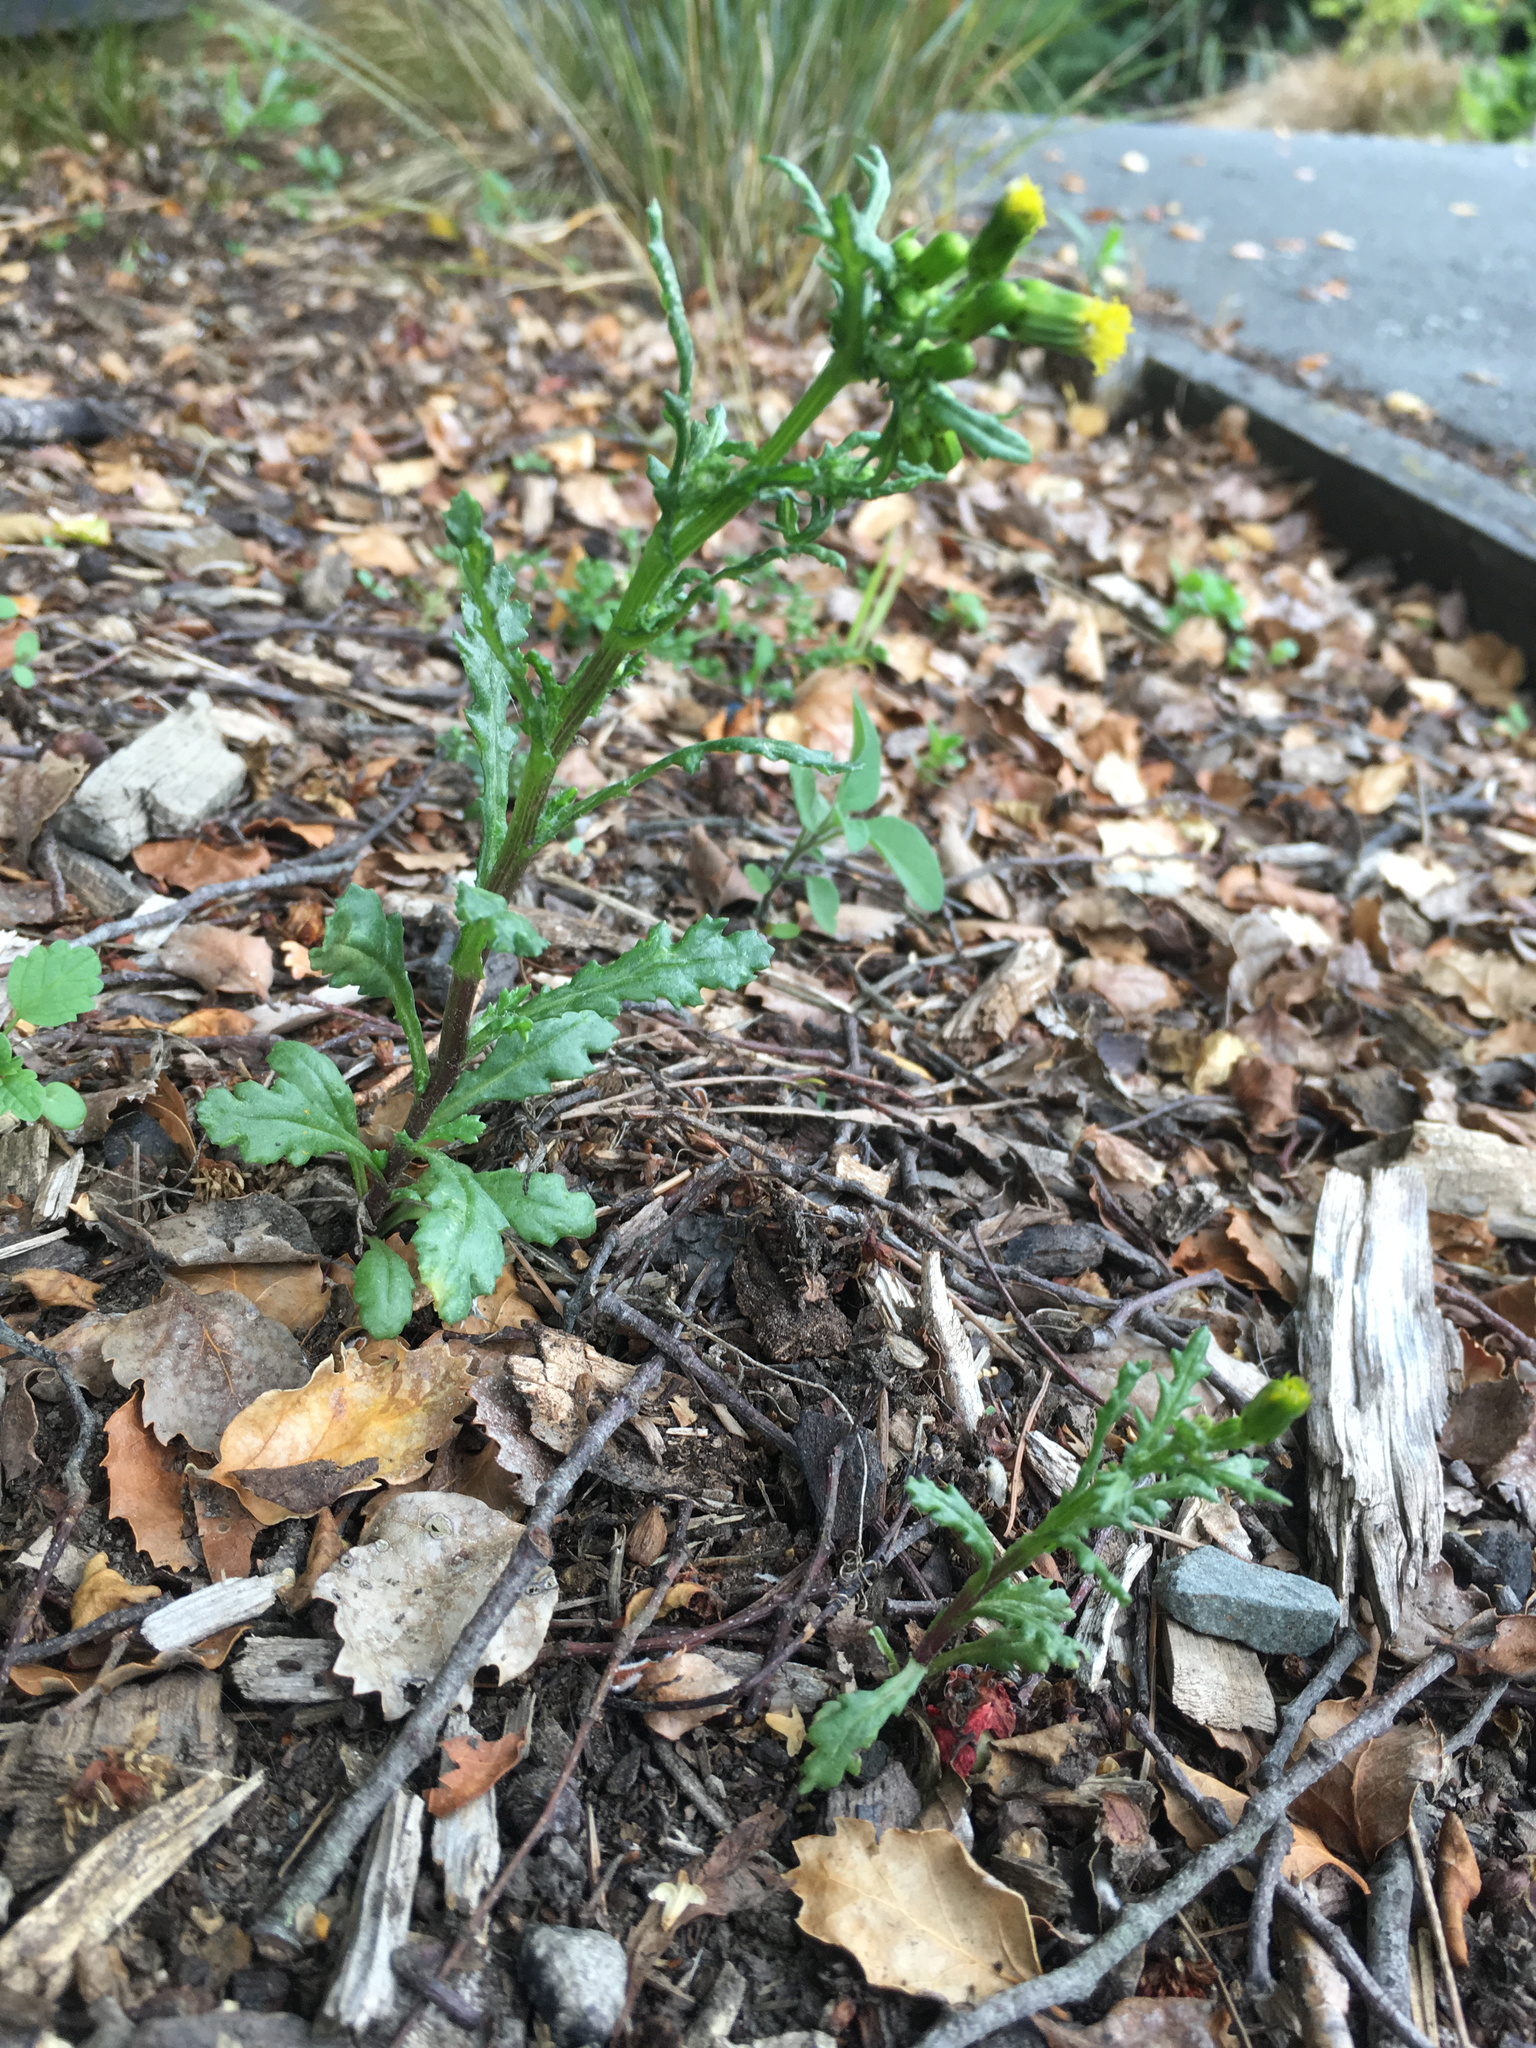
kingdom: Plantae
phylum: Tracheophyta
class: Magnoliopsida
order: Asterales
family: Asteraceae
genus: Senecio
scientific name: Senecio vulgaris
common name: Old-man-in-the-spring
